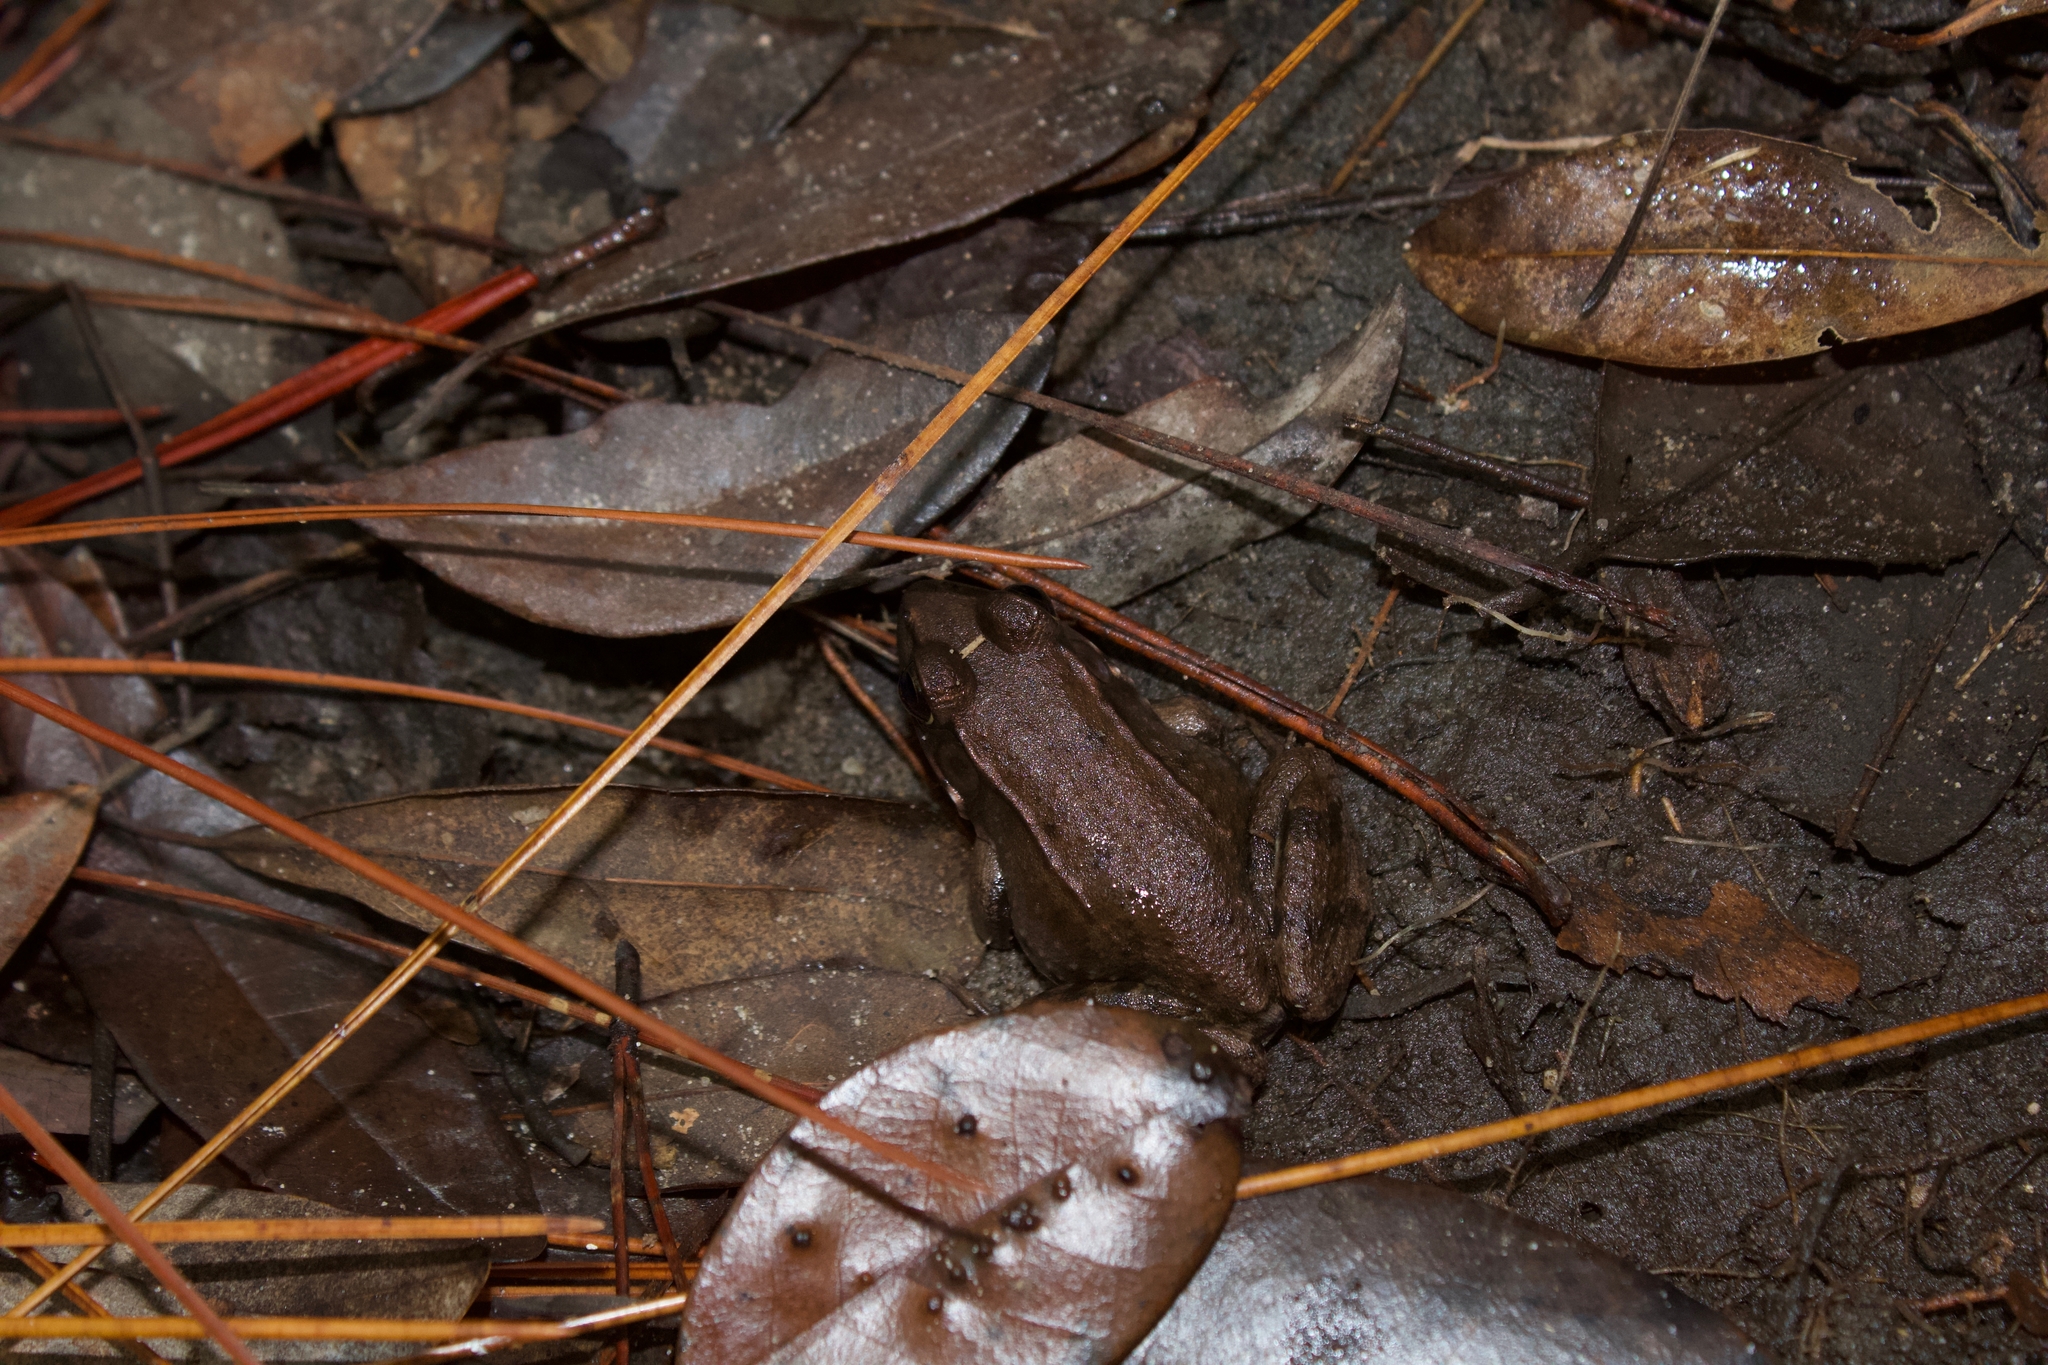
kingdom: Animalia
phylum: Chordata
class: Amphibia
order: Anura
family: Ranidae
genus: Lithobates
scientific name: Lithobates clamitans
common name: Green frog
